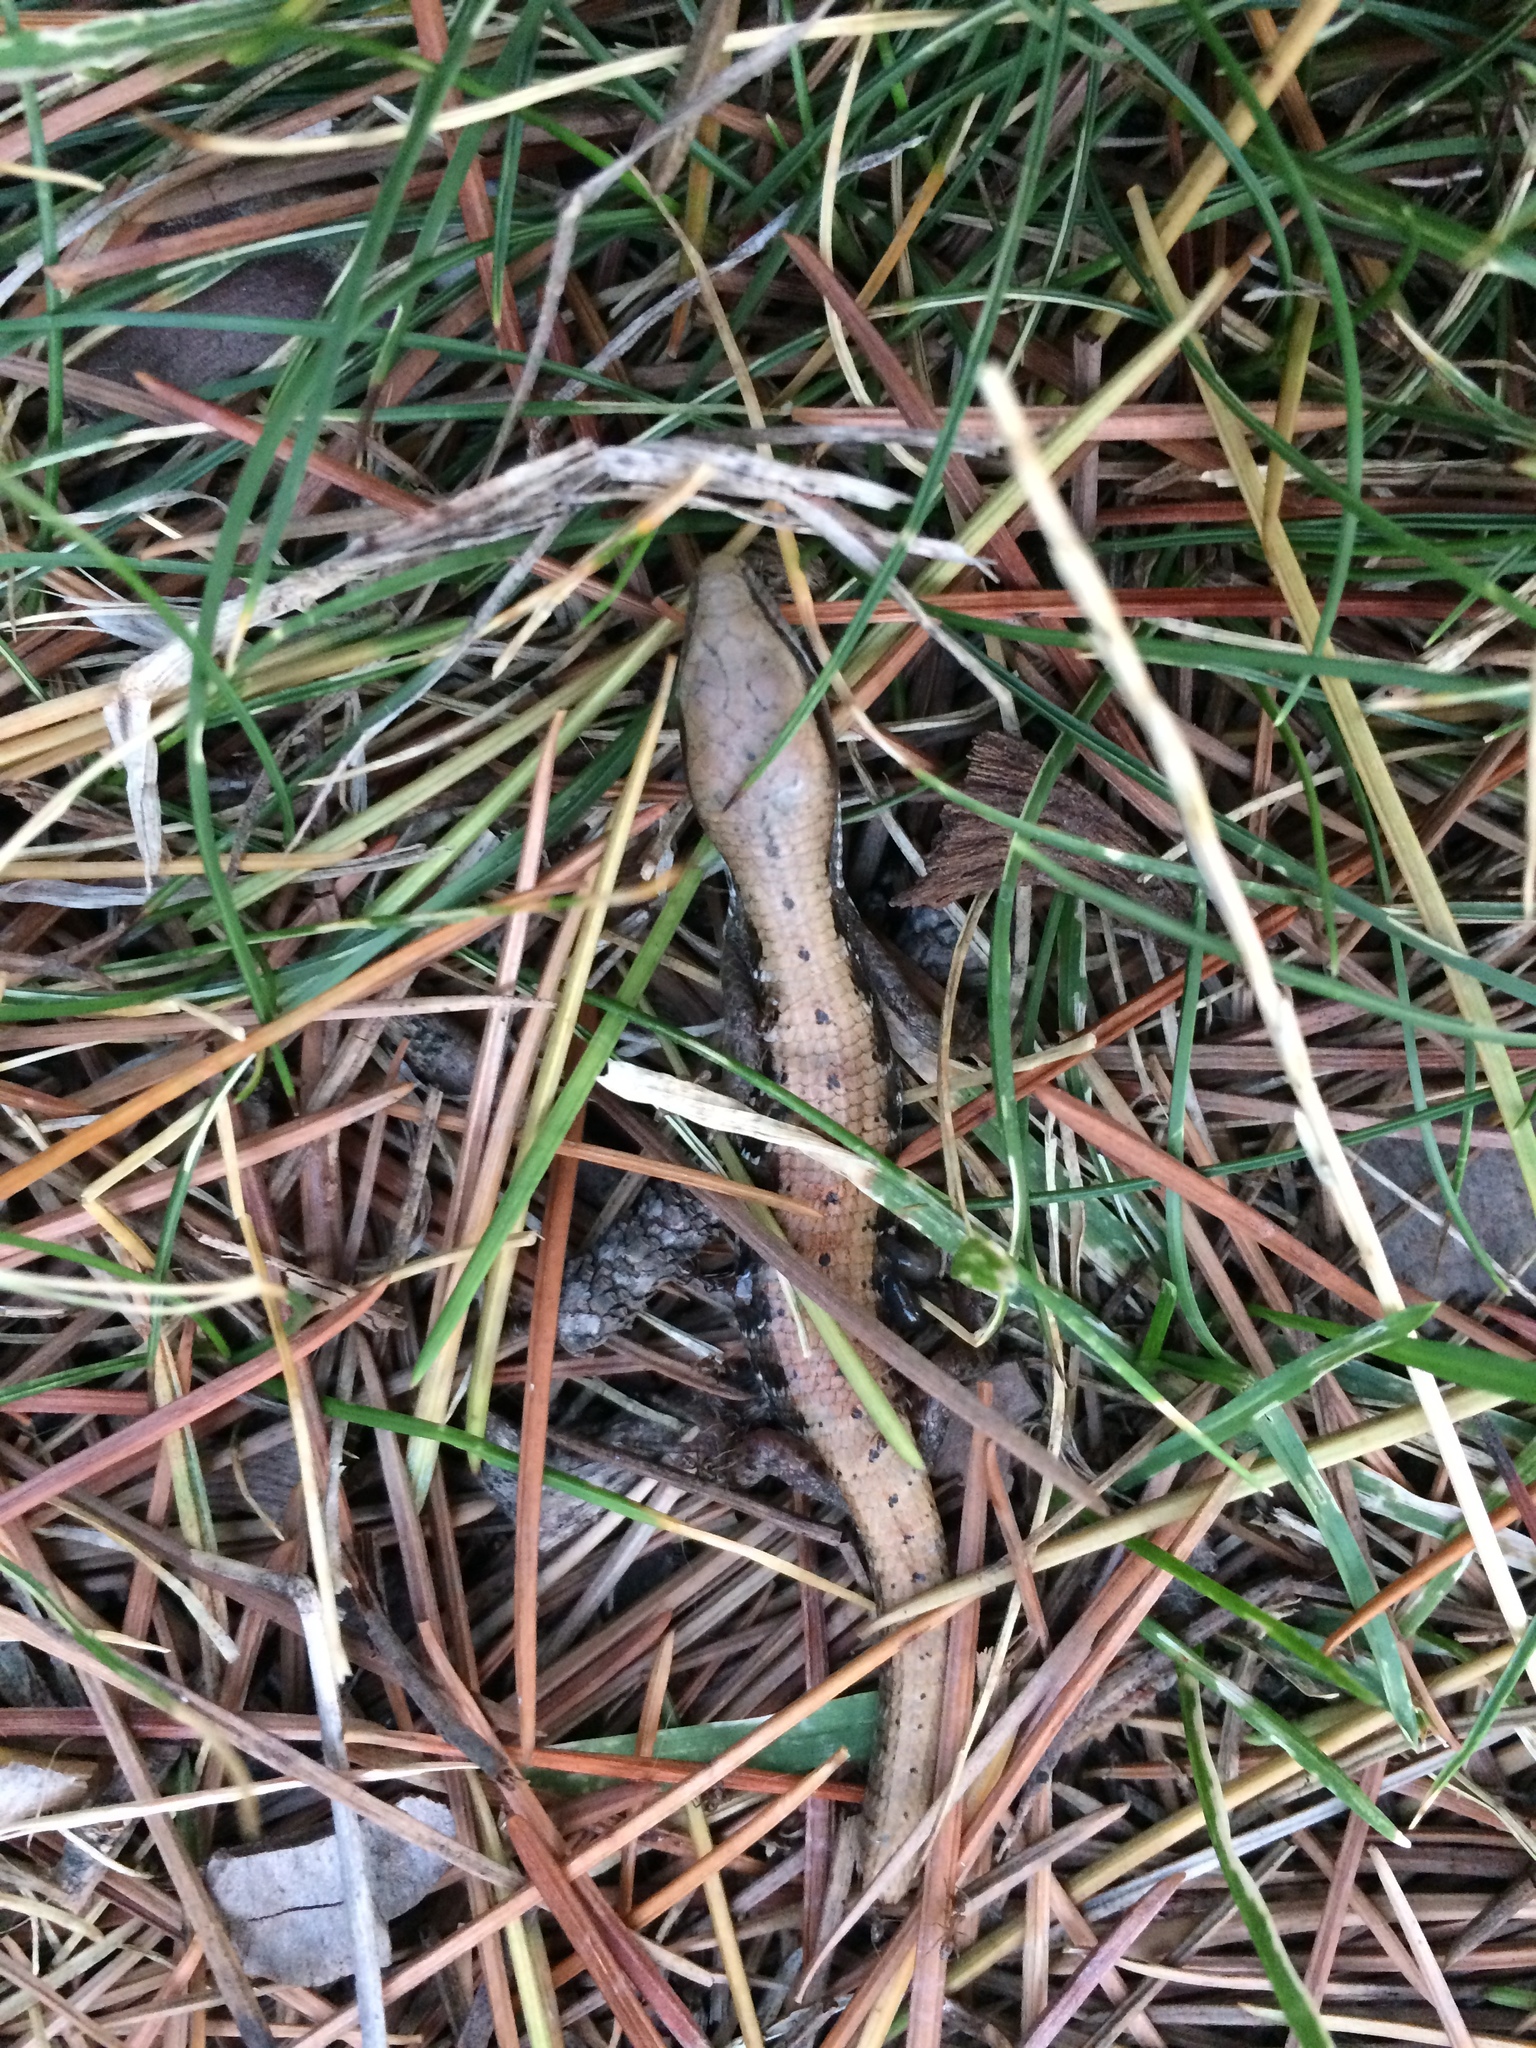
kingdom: Animalia
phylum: Chordata
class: Squamata
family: Anguidae
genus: Elgaria
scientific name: Elgaria multicarinata
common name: Southern alligator lizard
